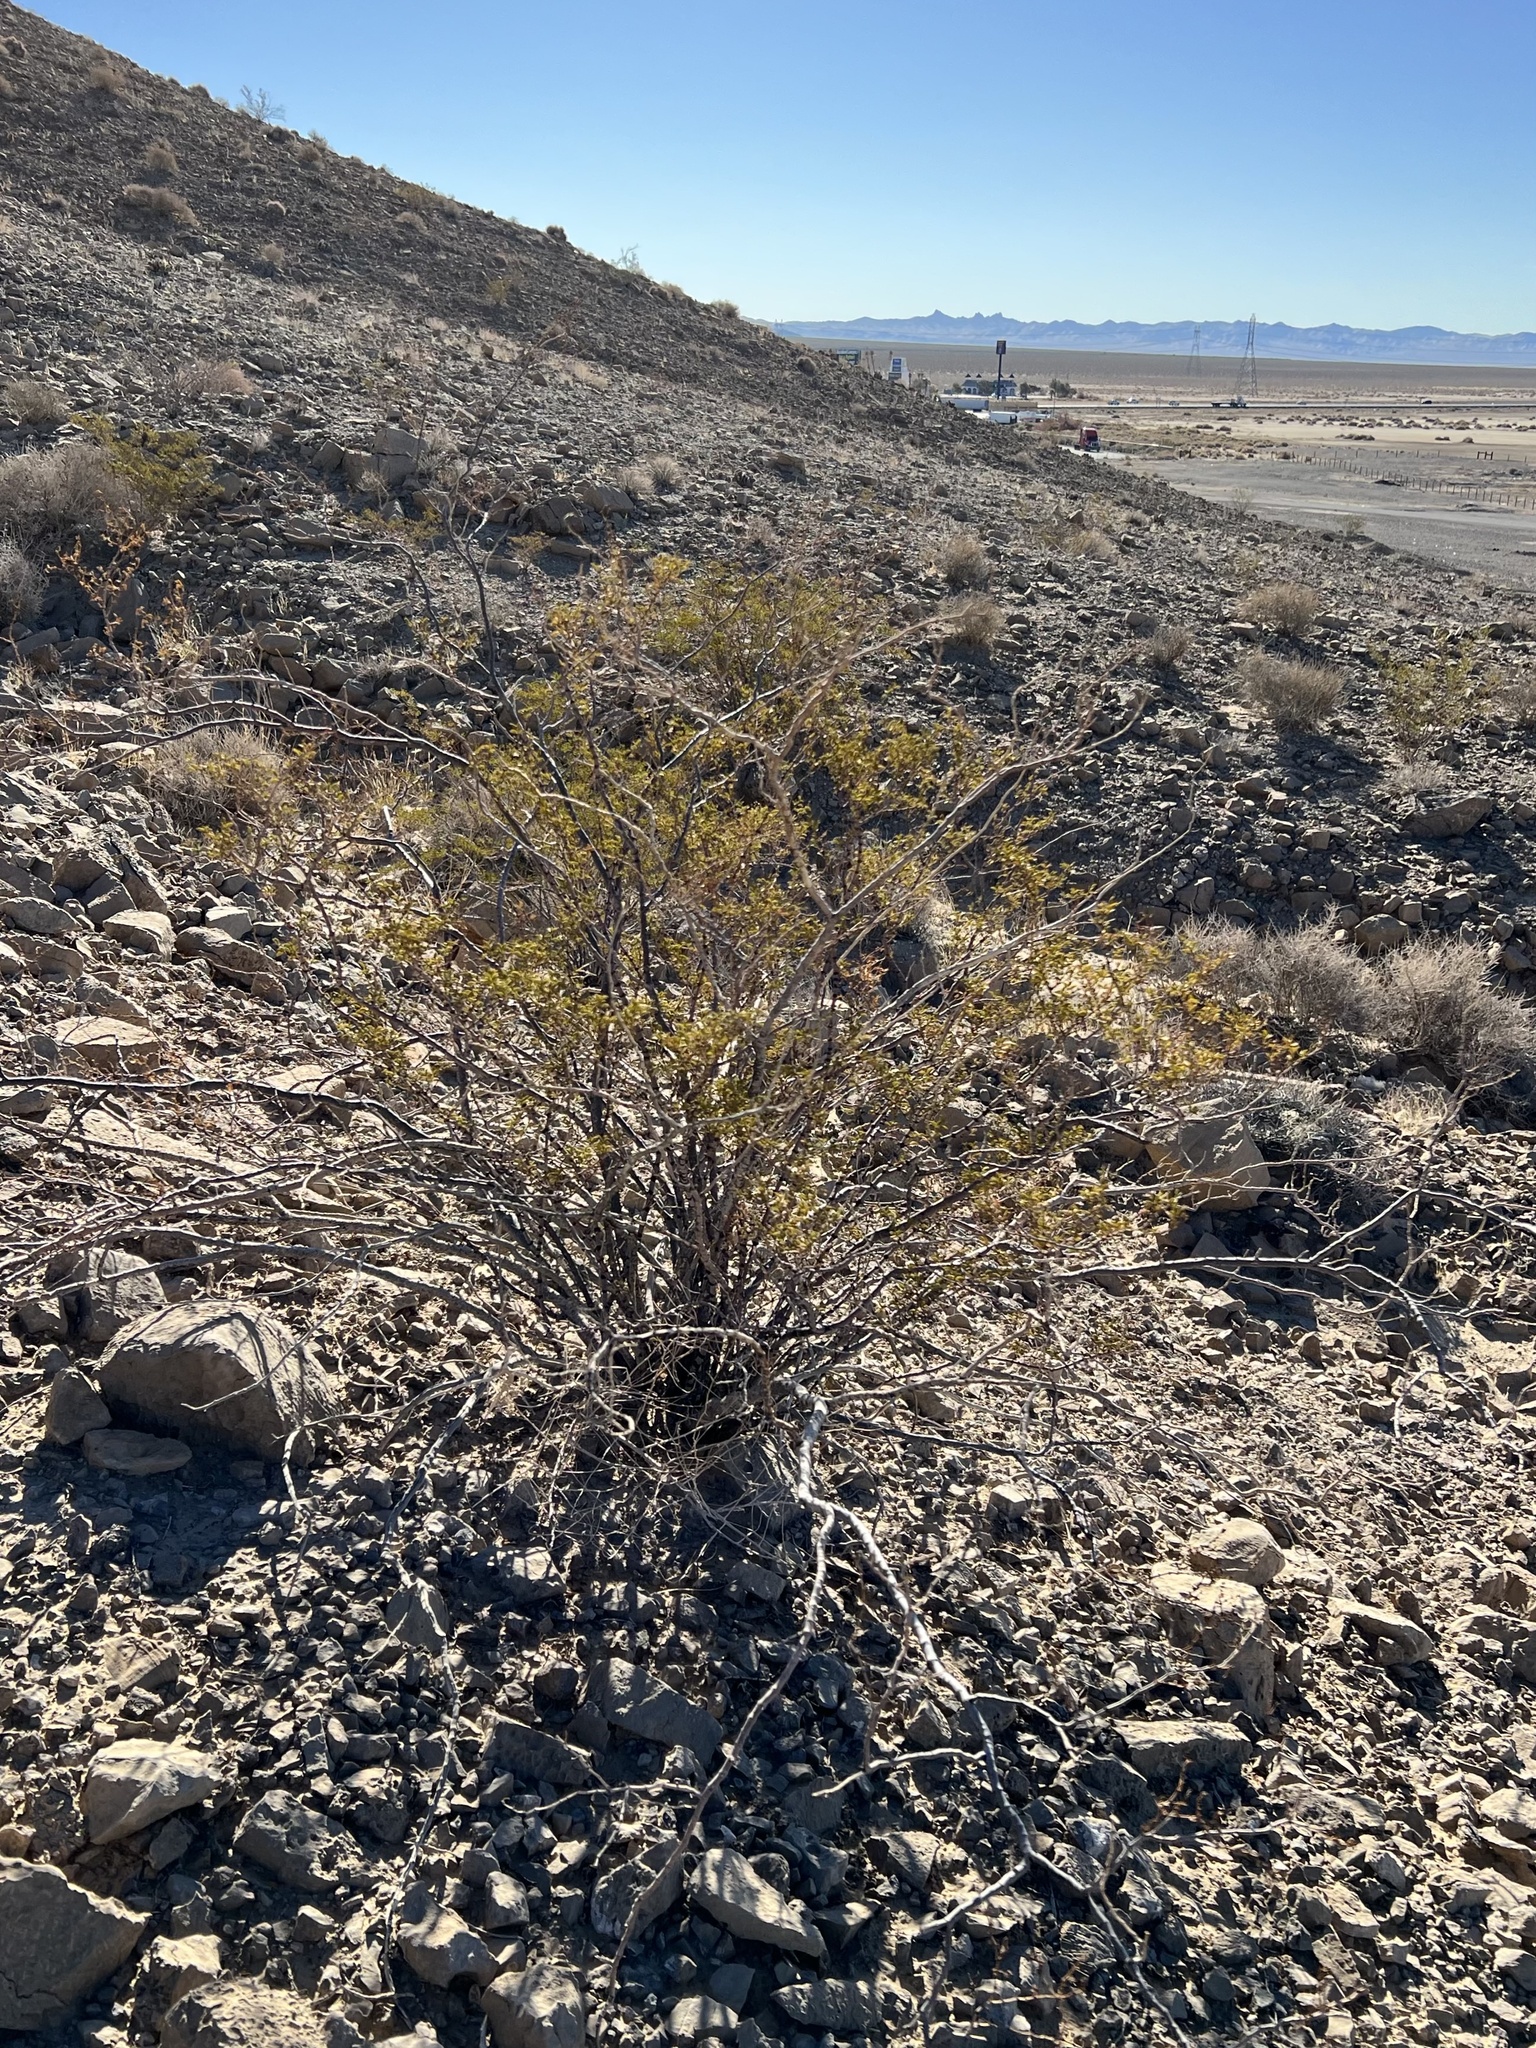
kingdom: Plantae
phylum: Tracheophyta
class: Magnoliopsida
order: Zygophyllales
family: Zygophyllaceae
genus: Larrea
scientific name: Larrea tridentata
